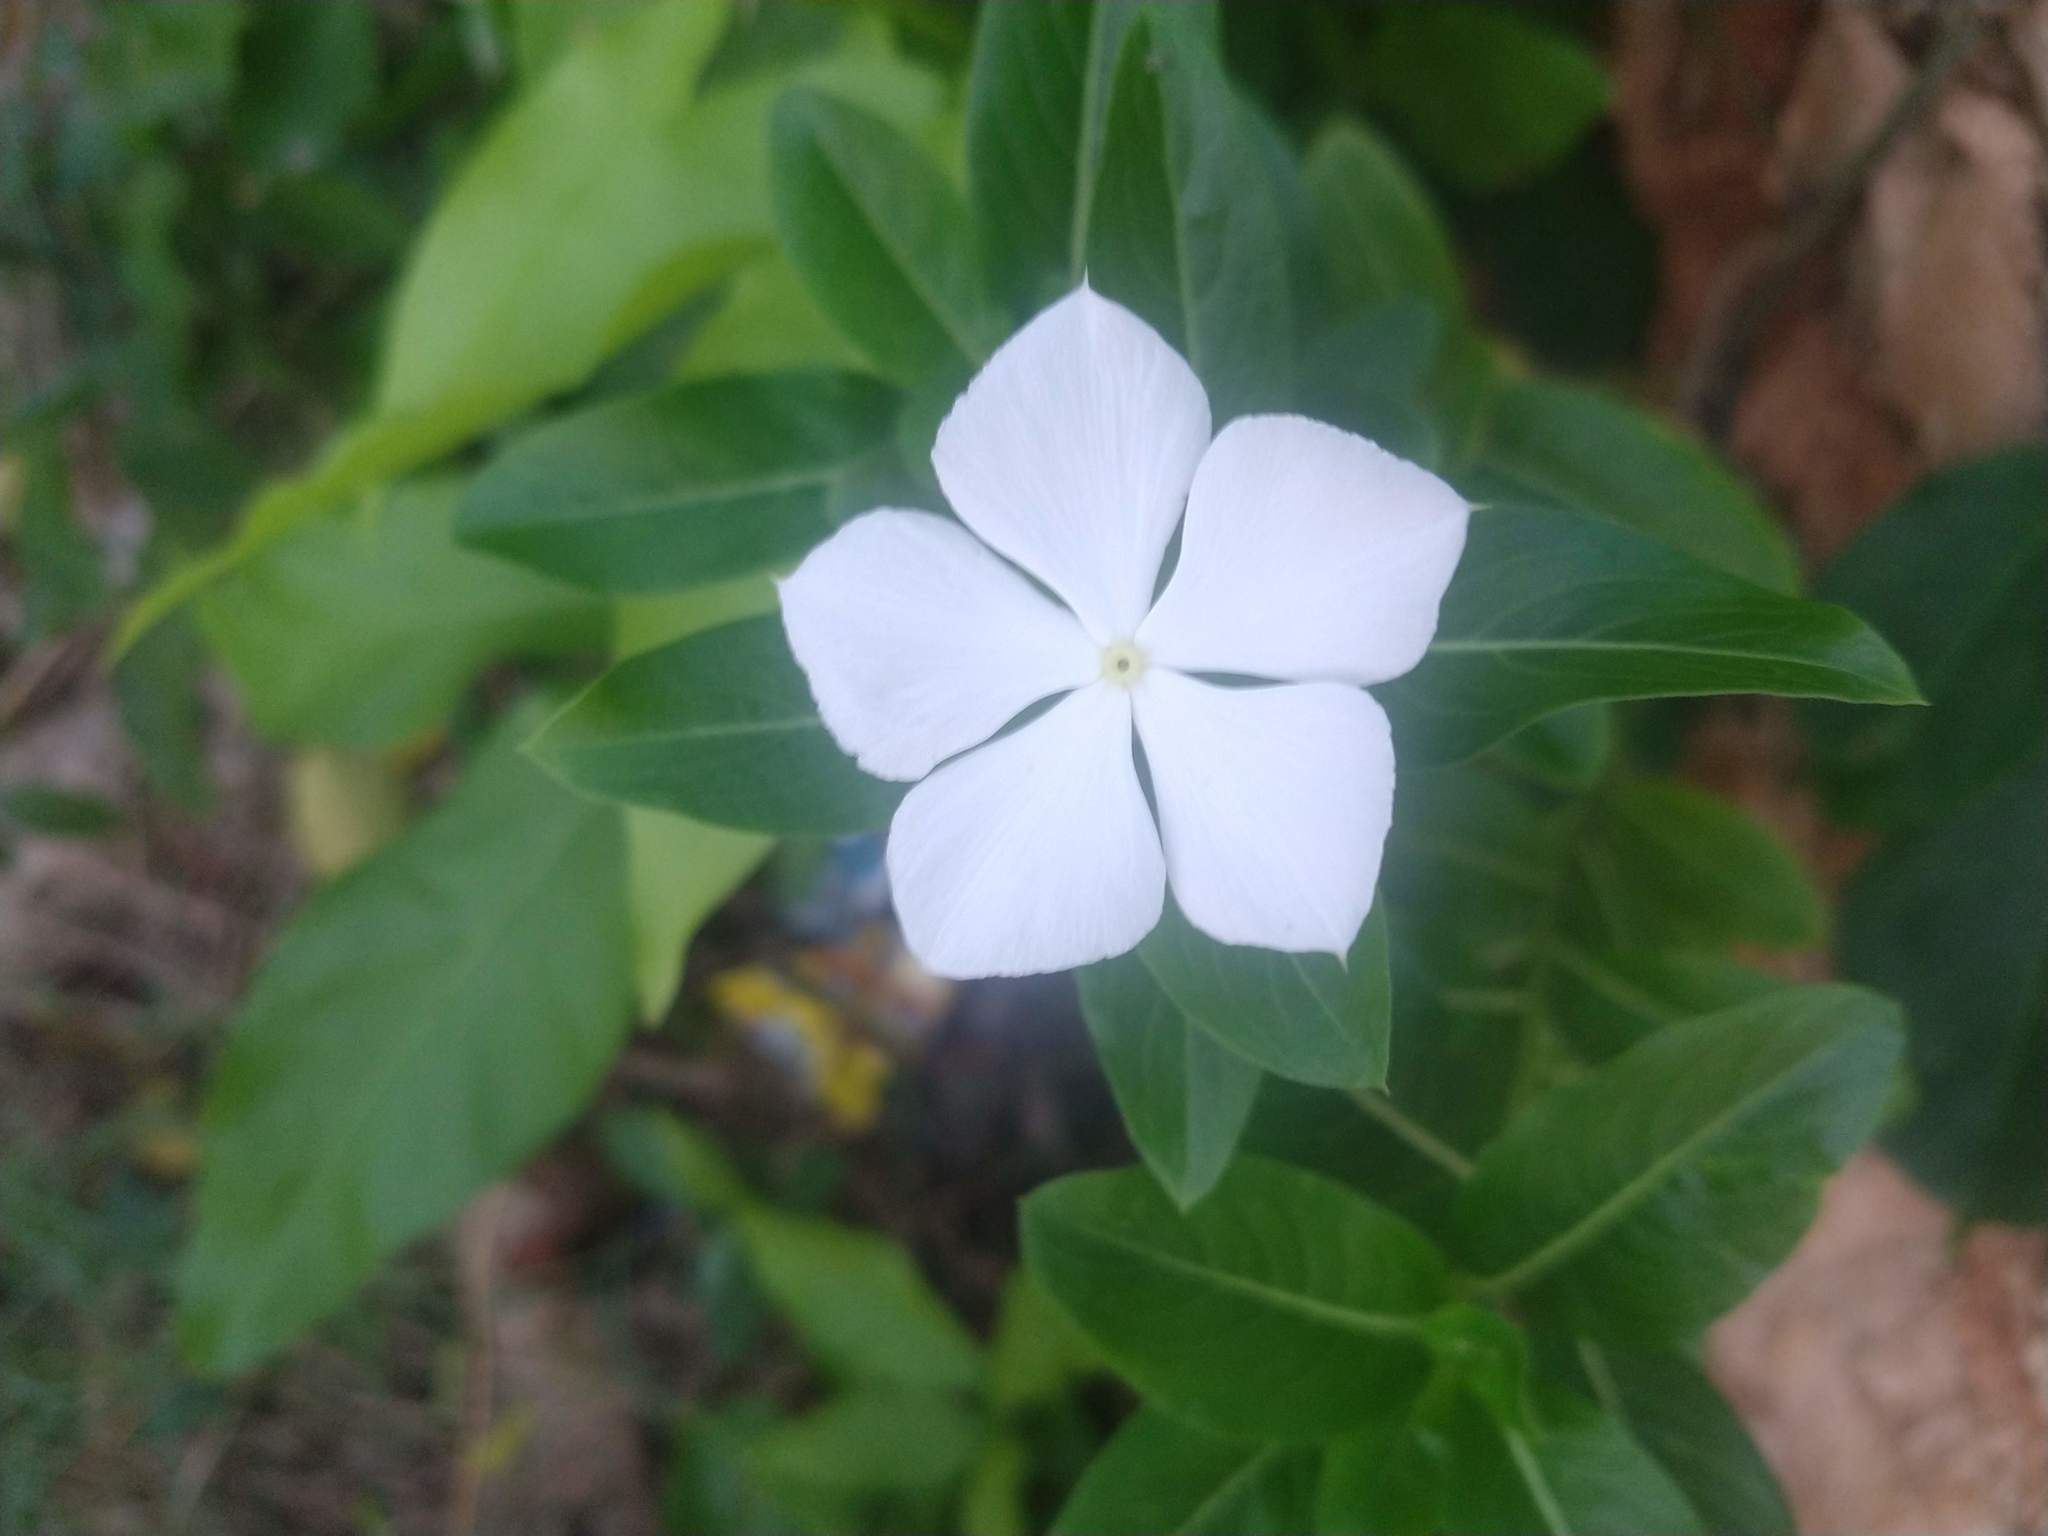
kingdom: Plantae
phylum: Tracheophyta
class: Magnoliopsida
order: Gentianales
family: Apocynaceae
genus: Catharanthus
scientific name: Catharanthus roseus
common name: Madagascar periwinkle
